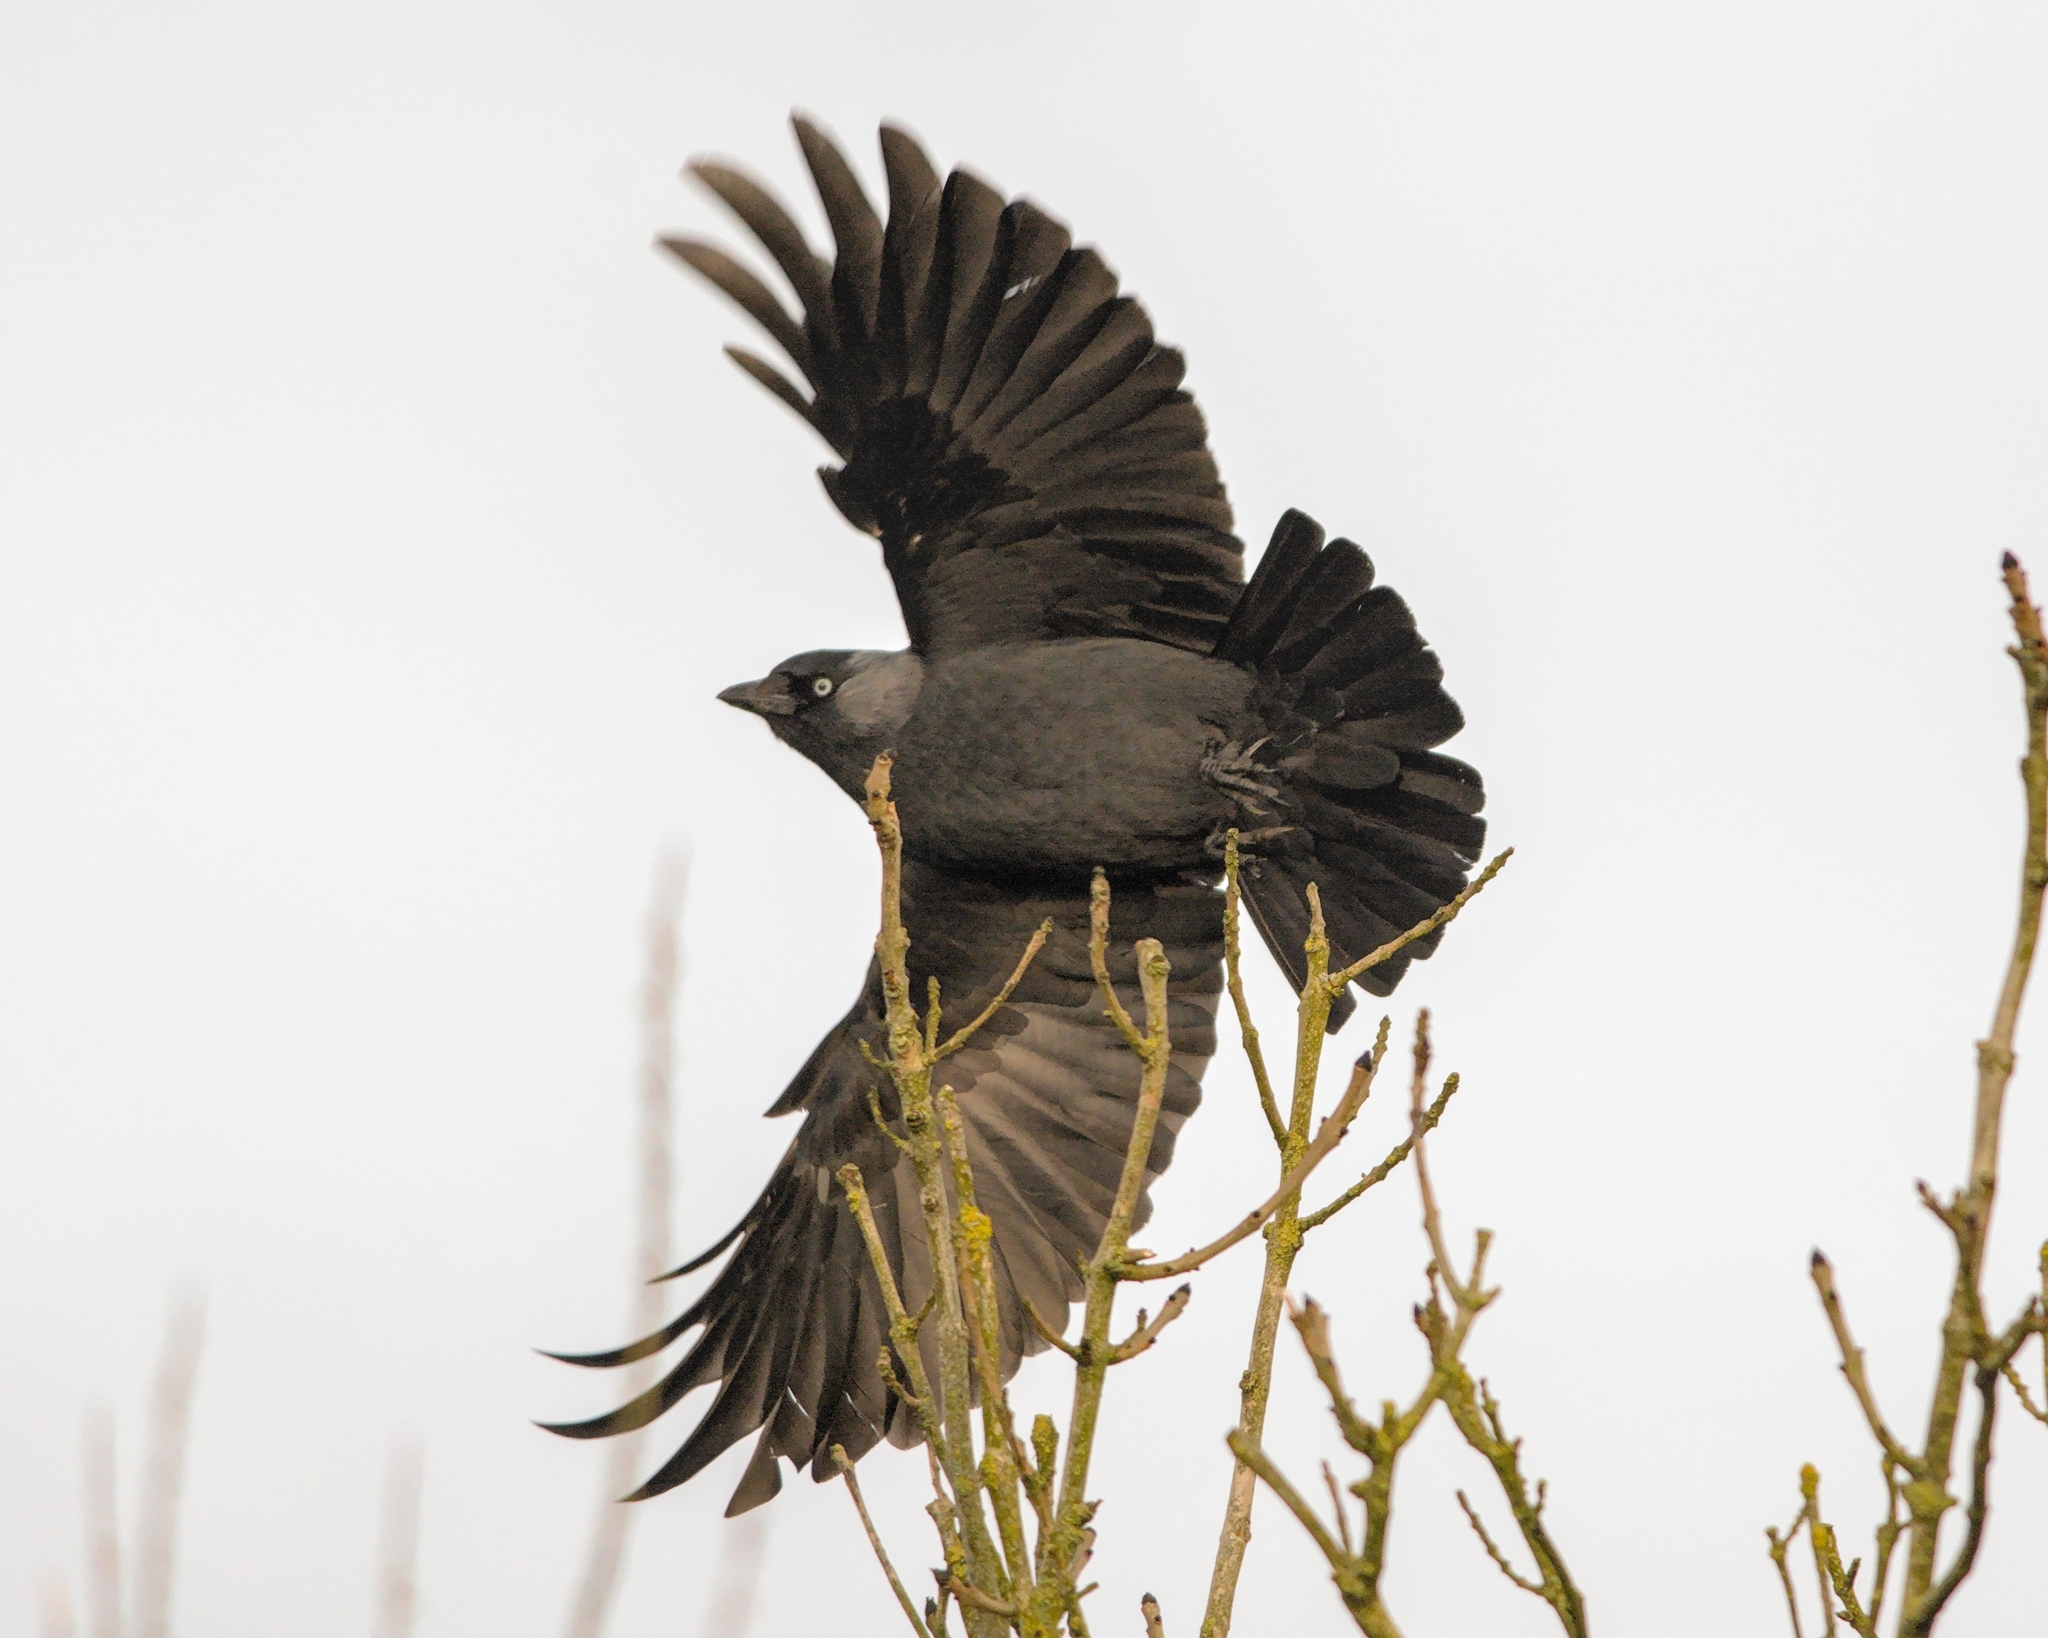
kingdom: Animalia
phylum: Chordata
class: Aves
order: Passeriformes
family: Corvidae
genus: Coloeus
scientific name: Coloeus monedula
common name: Western jackdaw
